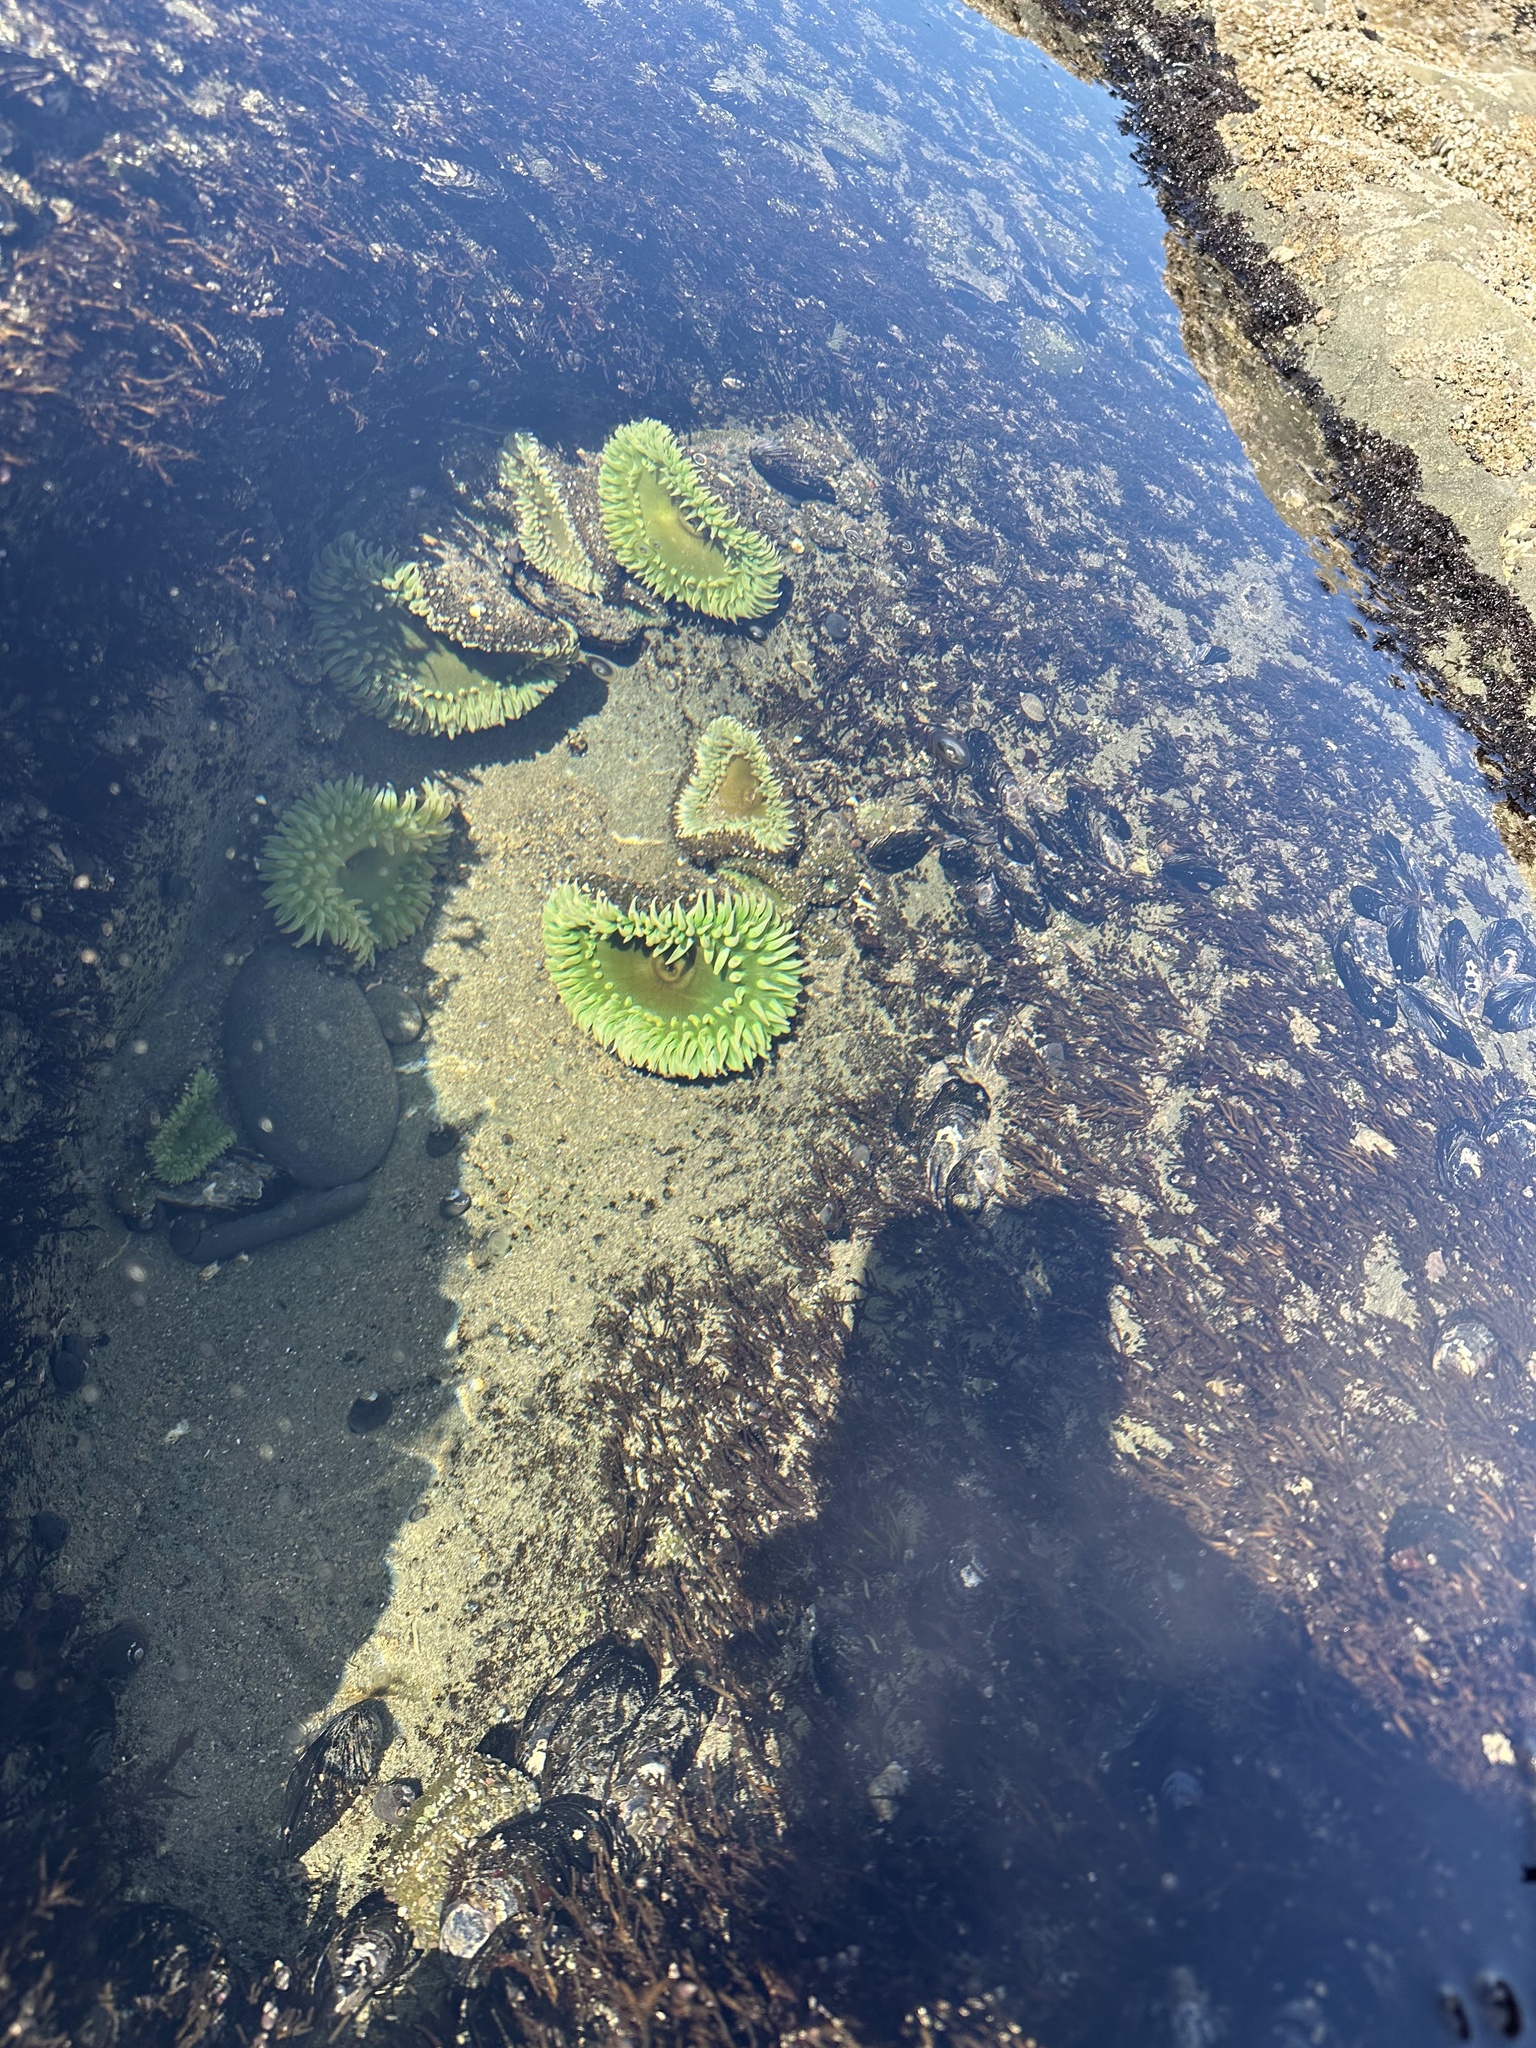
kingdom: Animalia
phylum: Cnidaria
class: Anthozoa
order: Actiniaria
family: Actiniidae
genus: Anthopleura
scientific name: Anthopleura xanthogrammica
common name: Giant green anemone
